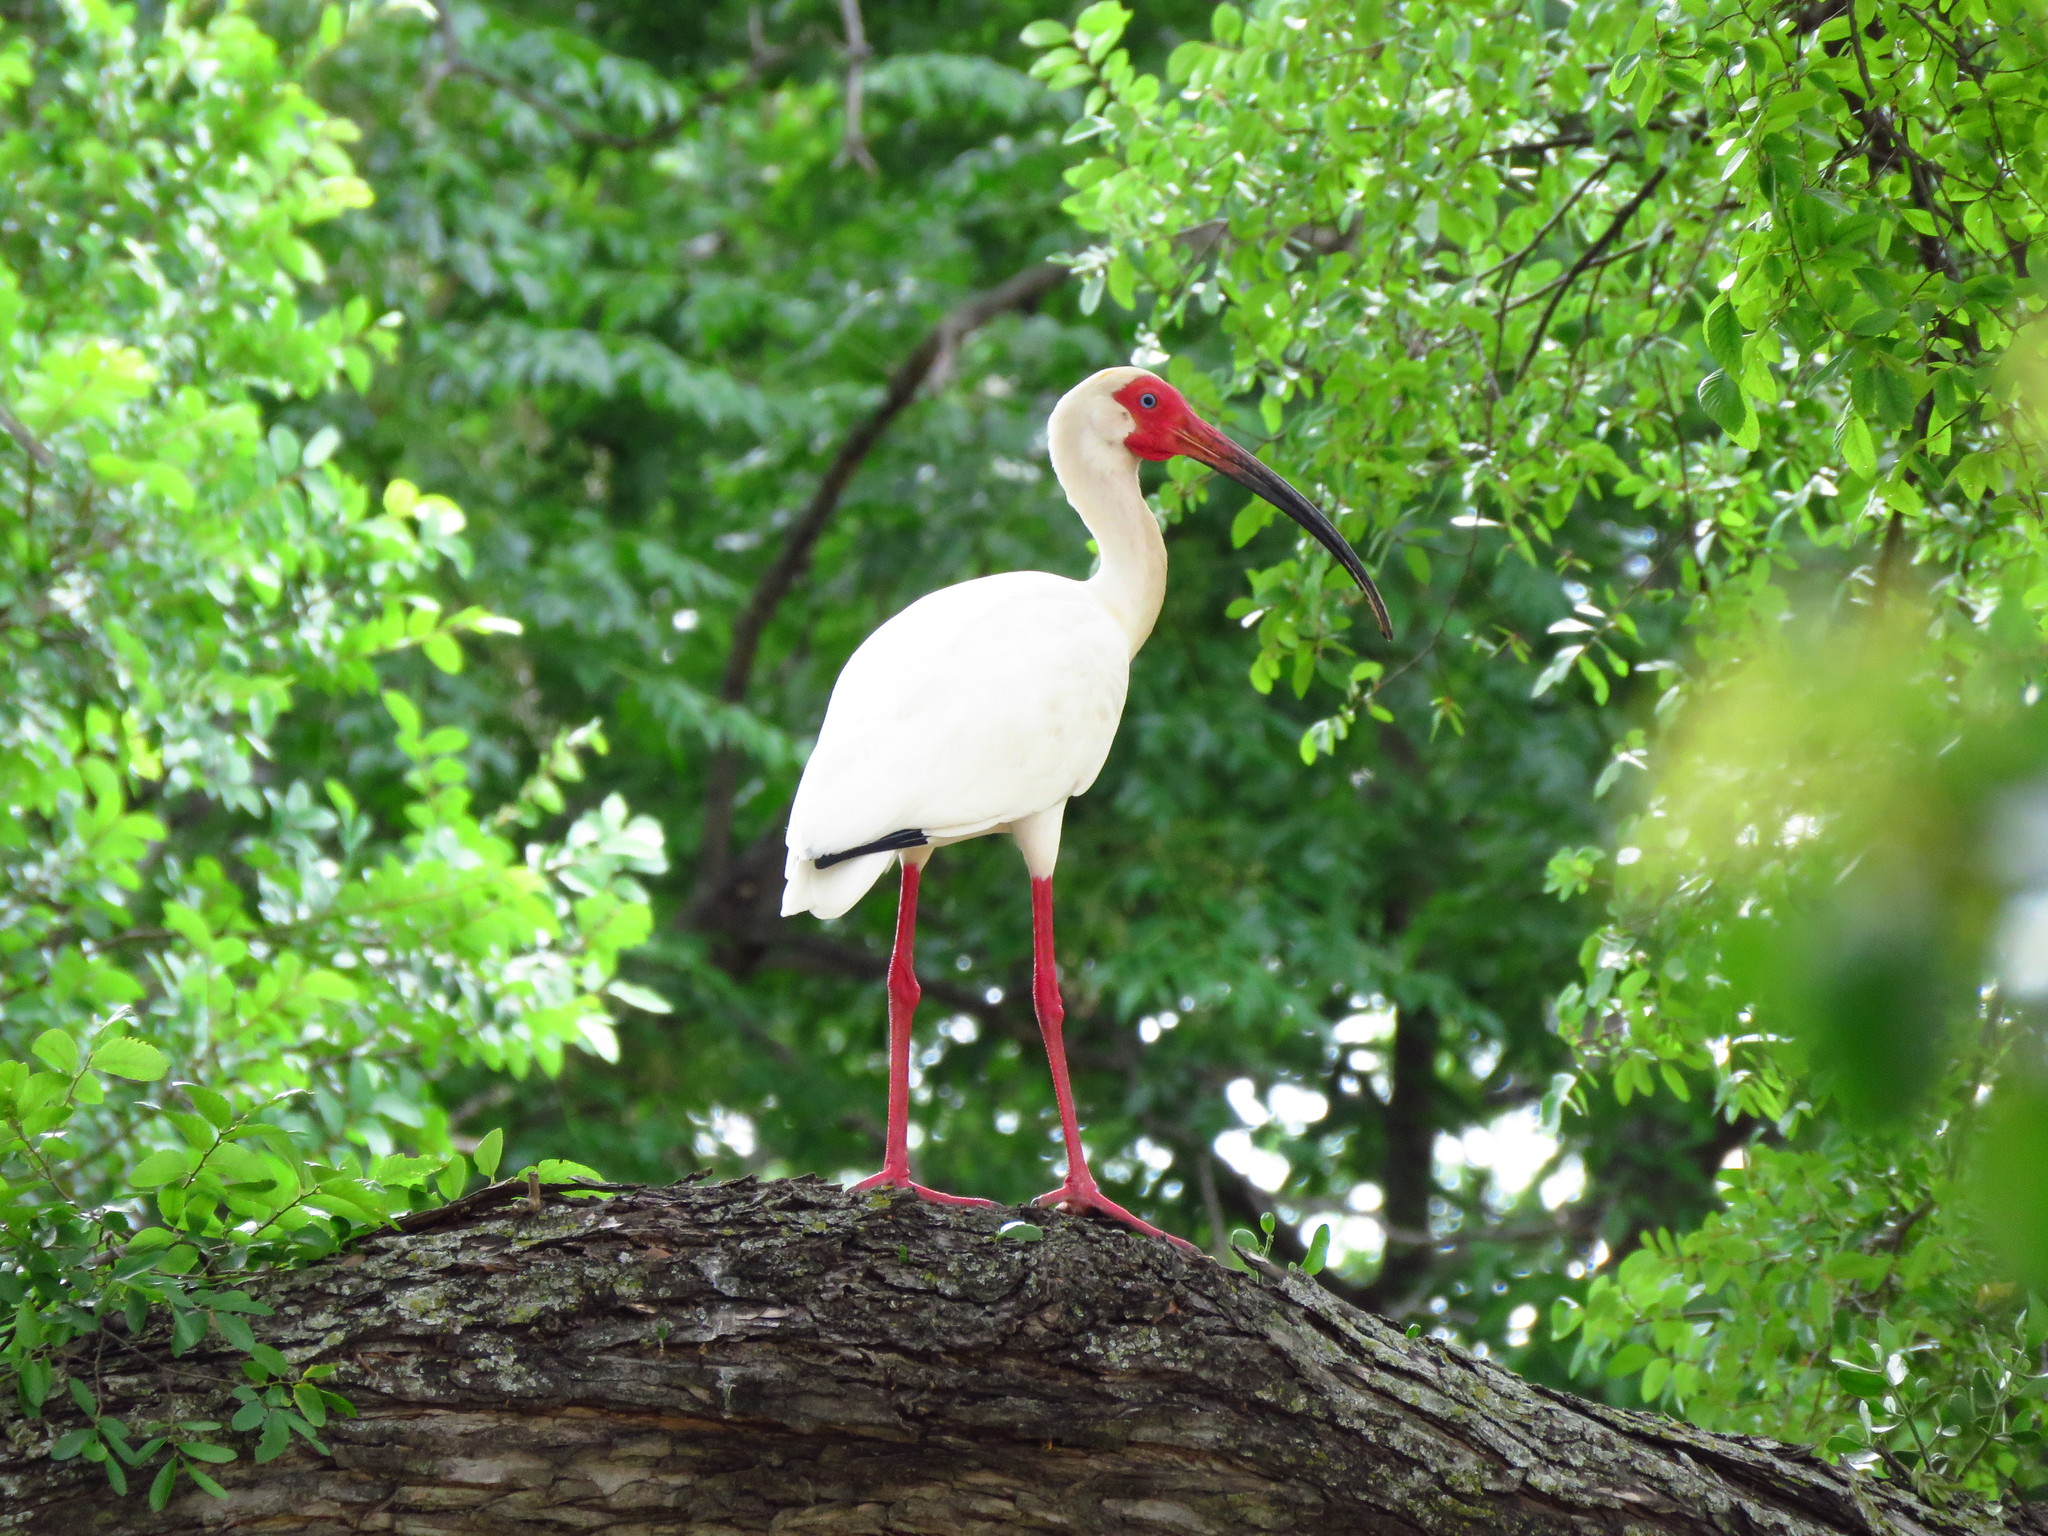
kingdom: Animalia
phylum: Chordata
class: Aves
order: Pelecaniformes
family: Threskiornithidae
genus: Eudocimus
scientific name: Eudocimus albus
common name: White ibis
